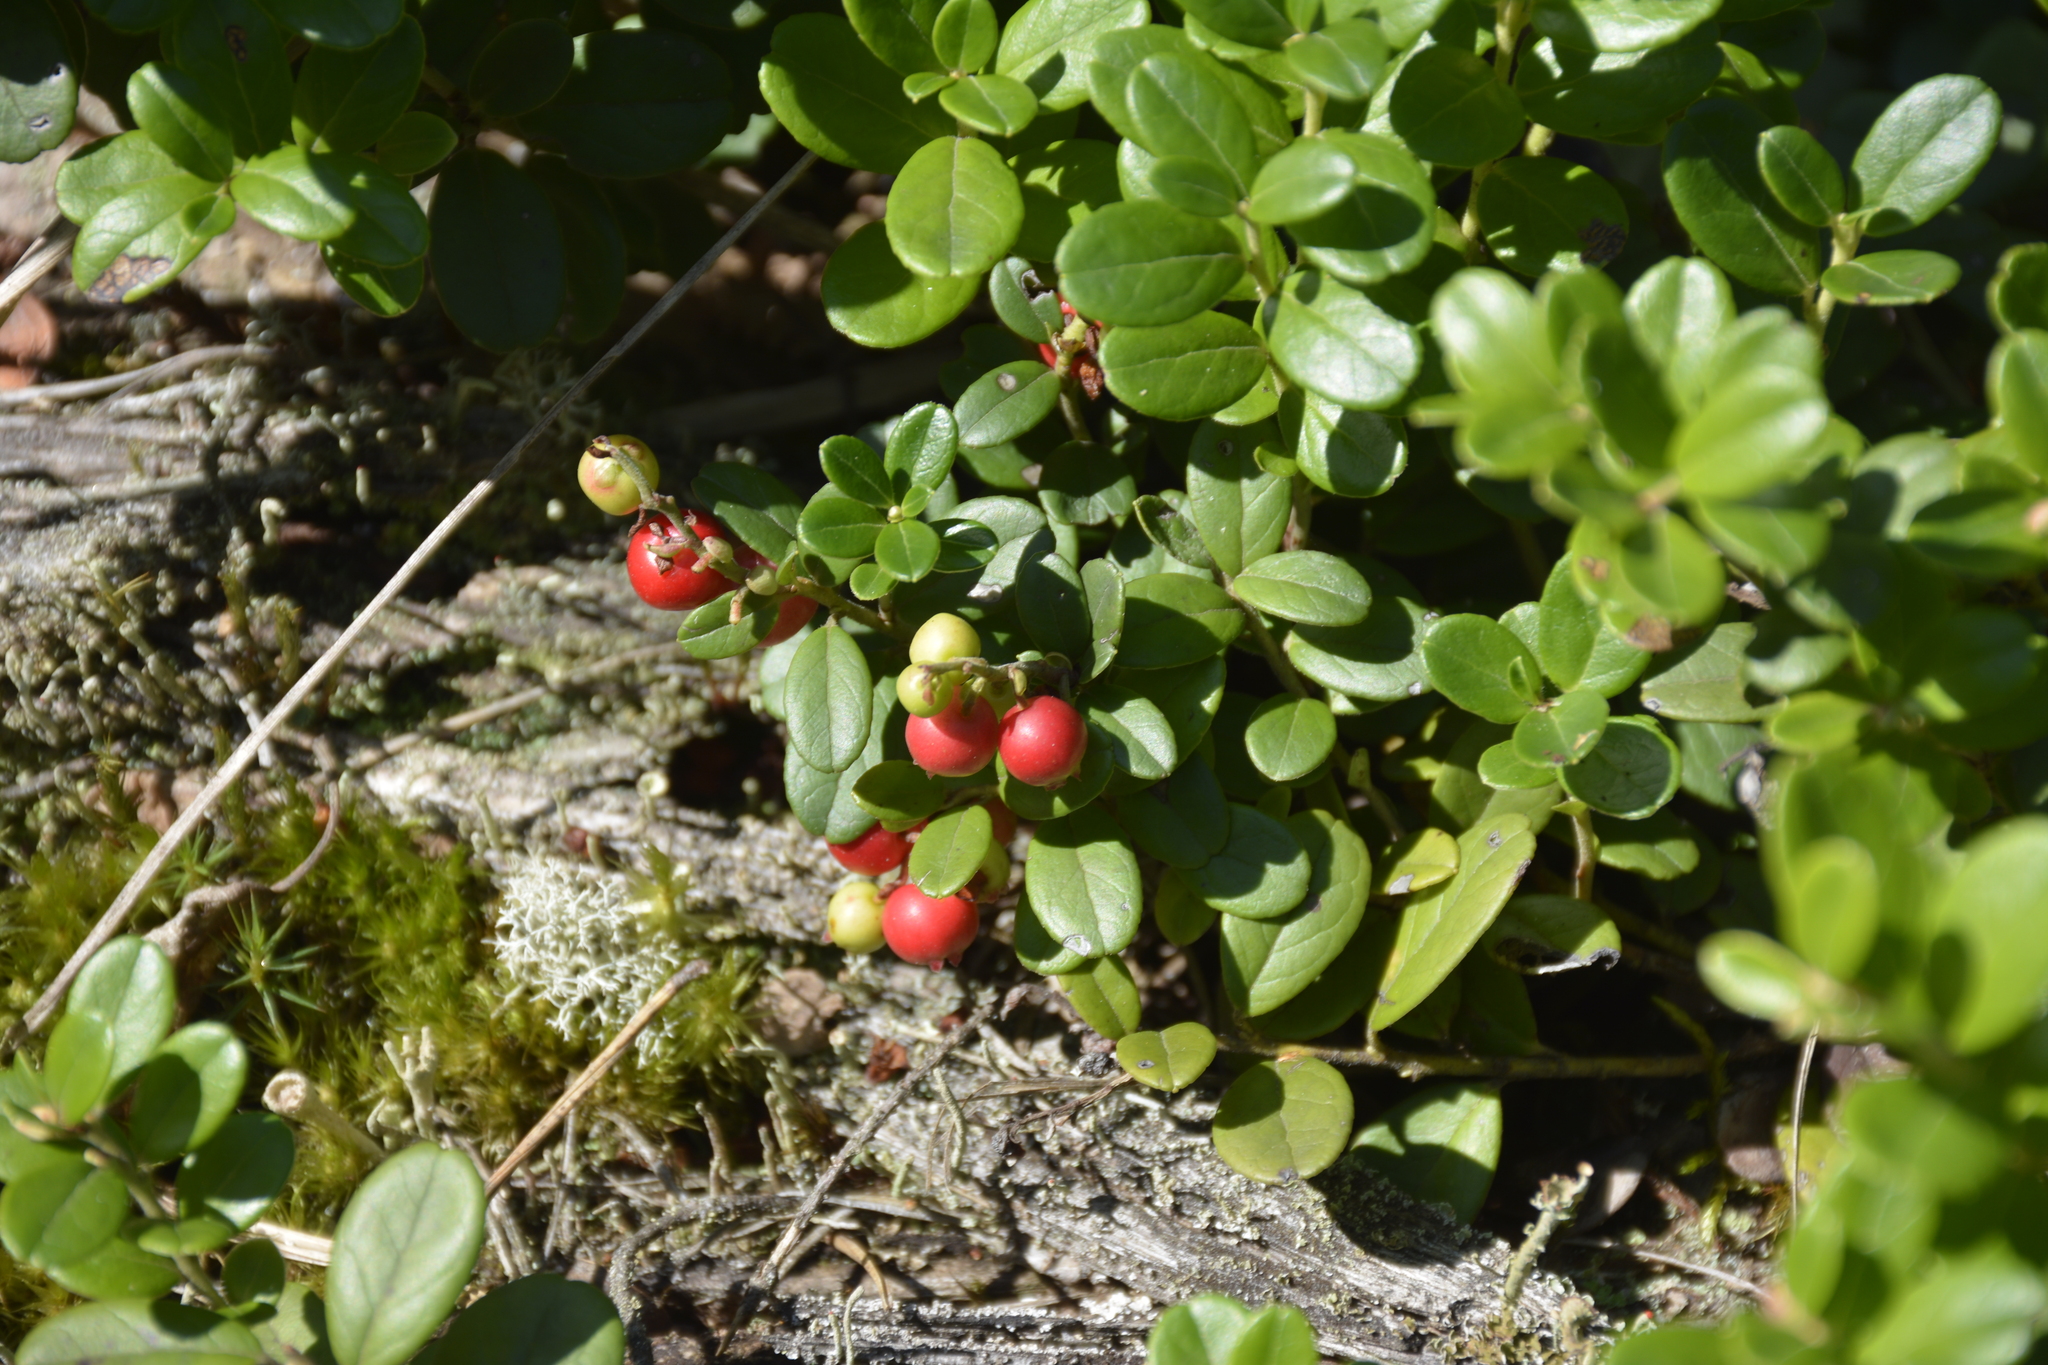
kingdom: Plantae
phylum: Tracheophyta
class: Magnoliopsida
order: Ericales
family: Ericaceae
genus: Vaccinium
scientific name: Vaccinium vitis-idaea
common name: Cowberry
